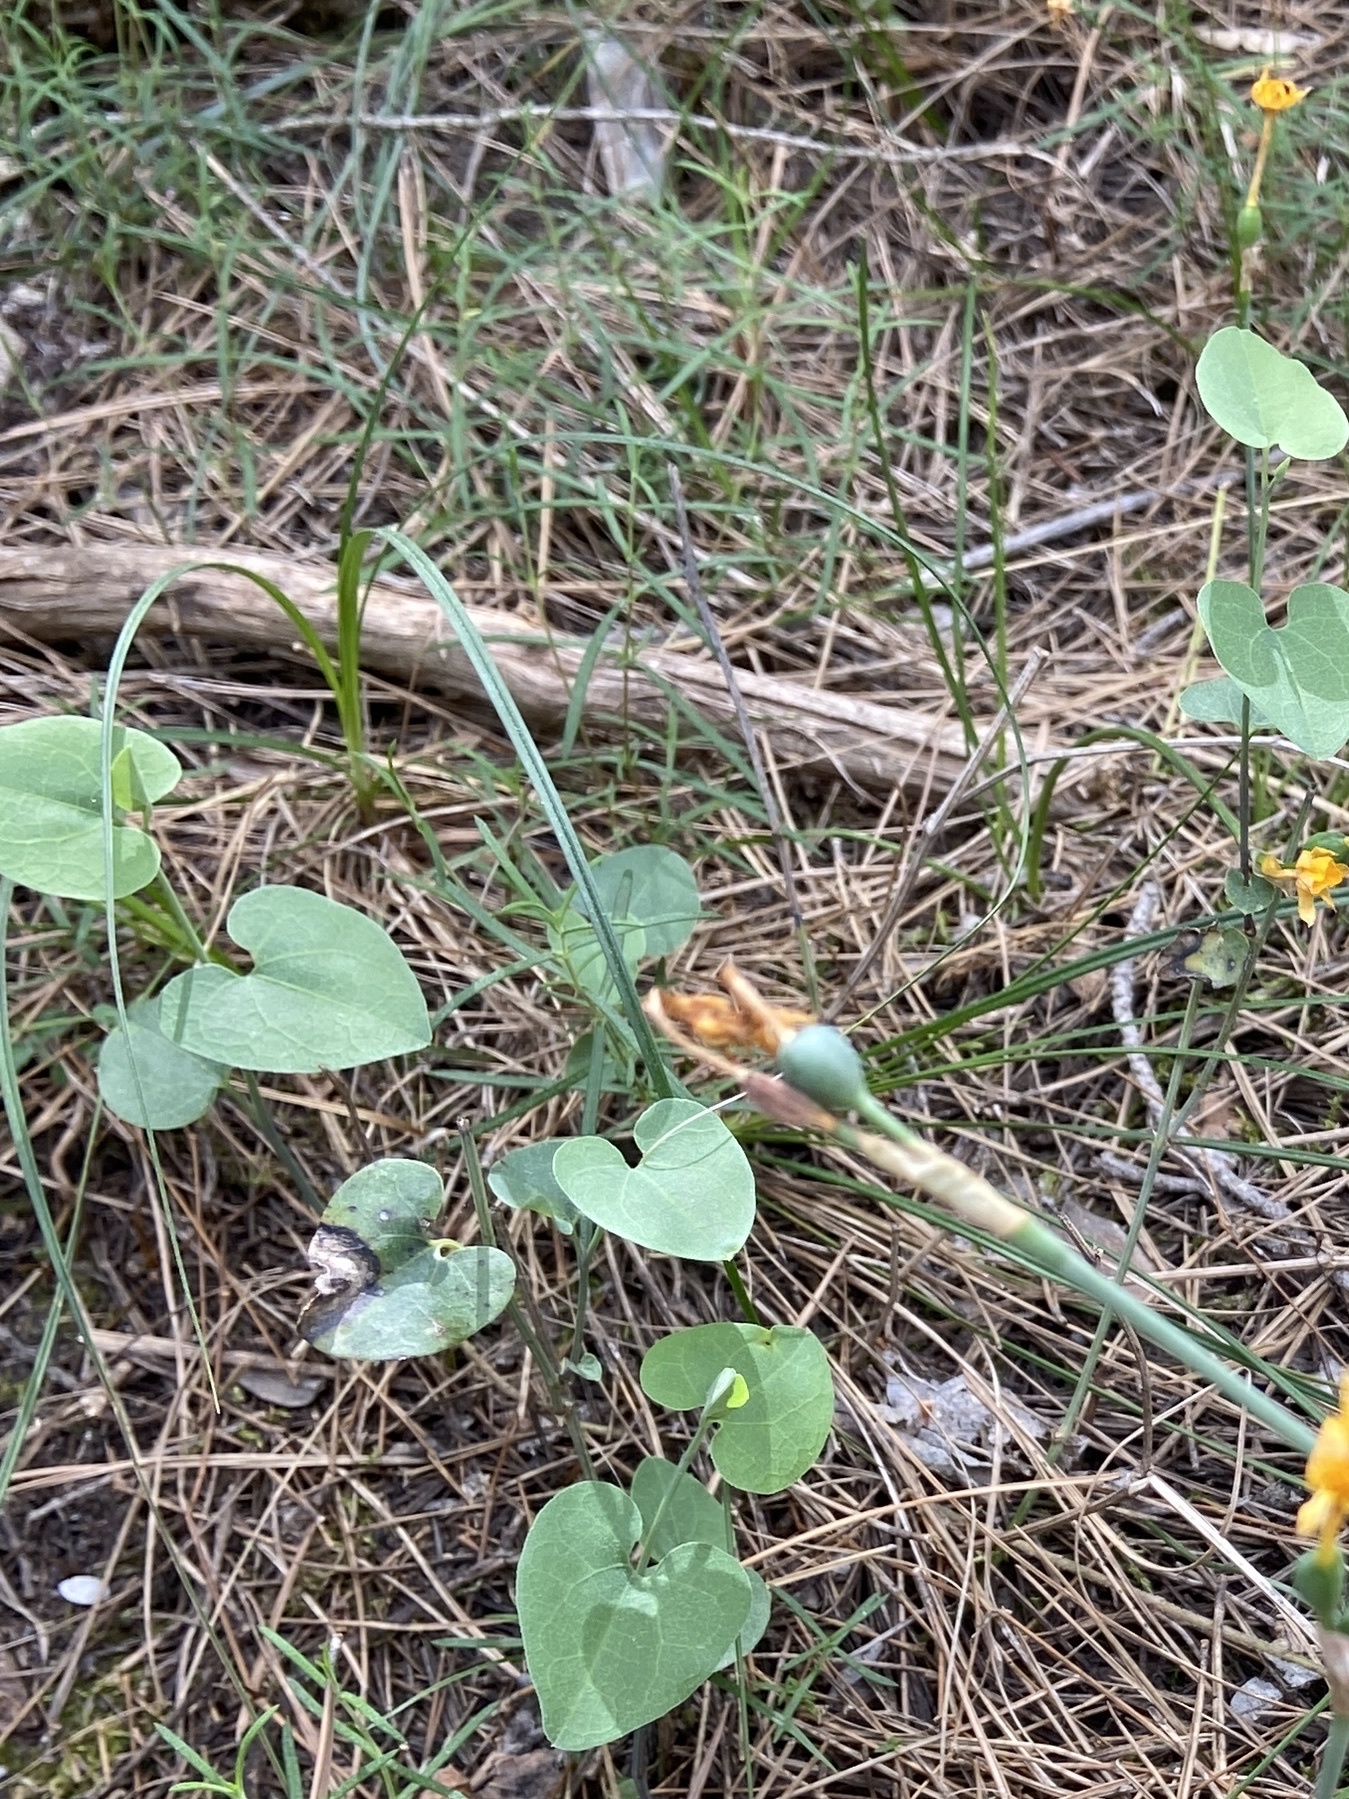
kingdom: Plantae
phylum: Tracheophyta
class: Magnoliopsida
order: Piperales
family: Aristolochiaceae
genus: Aristolochia
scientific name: Aristolochia baetica
